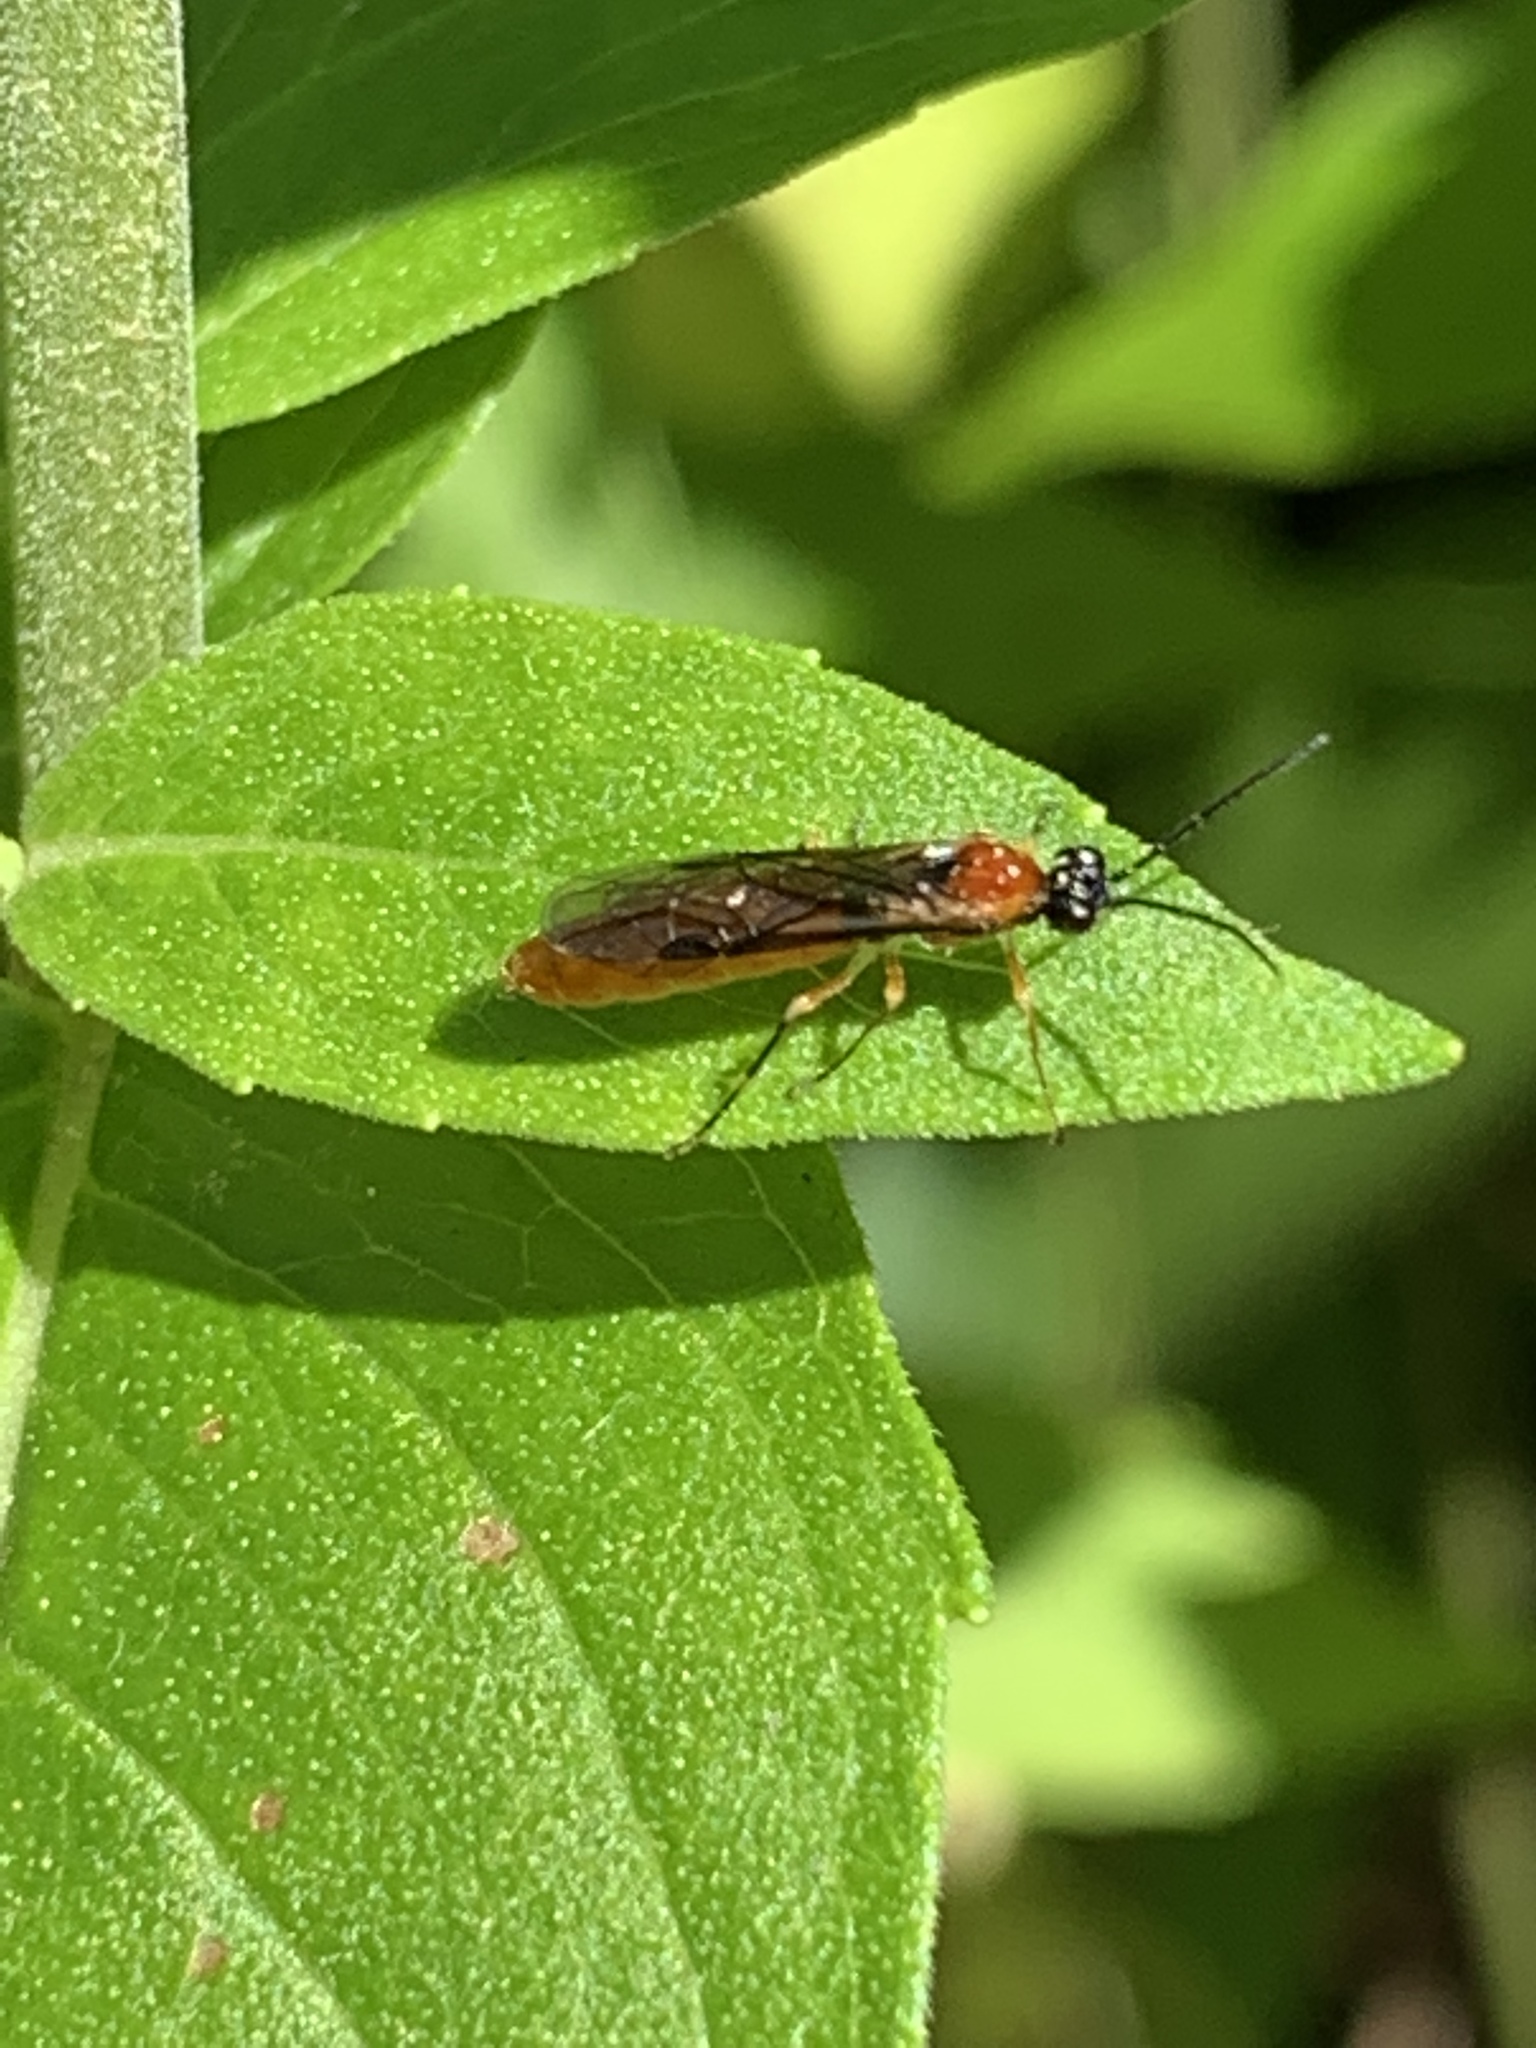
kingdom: Animalia
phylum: Arthropoda
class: Insecta
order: Hymenoptera
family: Tenthredinidae
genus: Thrinax
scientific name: Thrinax dubitata
